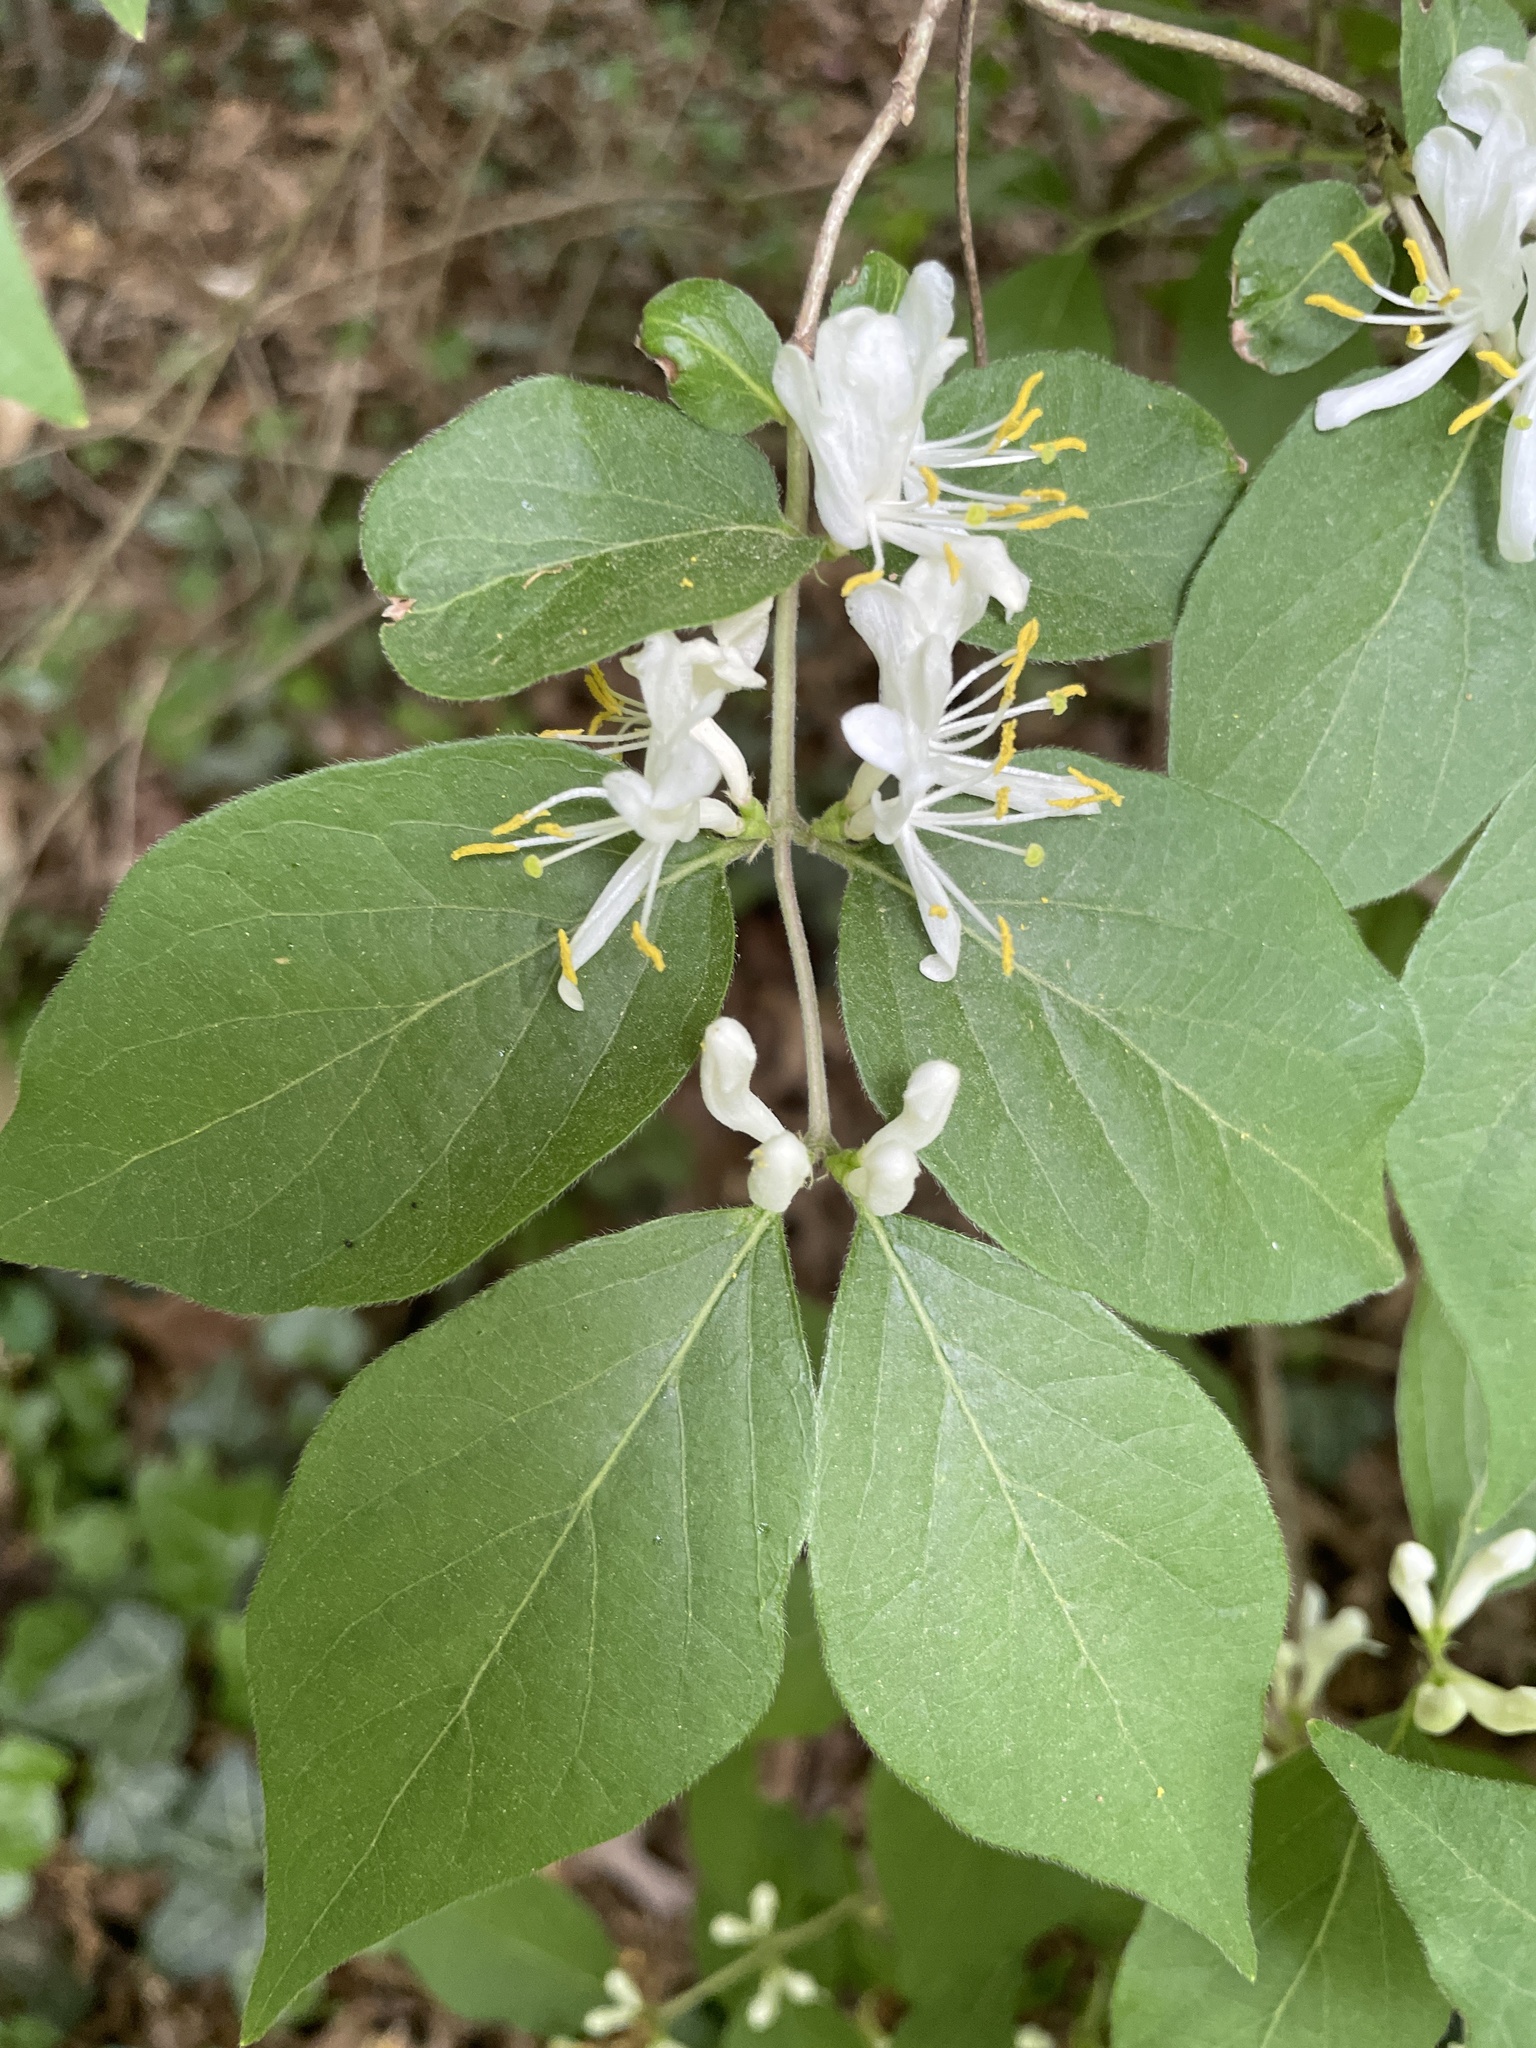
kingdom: Plantae
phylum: Tracheophyta
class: Magnoliopsida
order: Dipsacales
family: Caprifoliaceae
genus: Lonicera
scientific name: Lonicera maackii
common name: Amur honeysuckle
